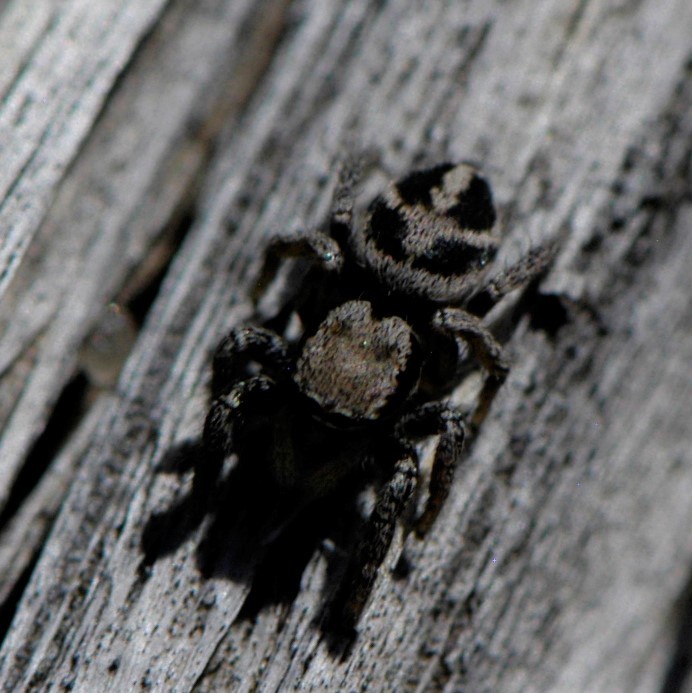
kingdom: Animalia
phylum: Arthropoda
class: Arachnida
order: Araneae
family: Salticidae
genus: Habronattus
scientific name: Habronattus klauseri
